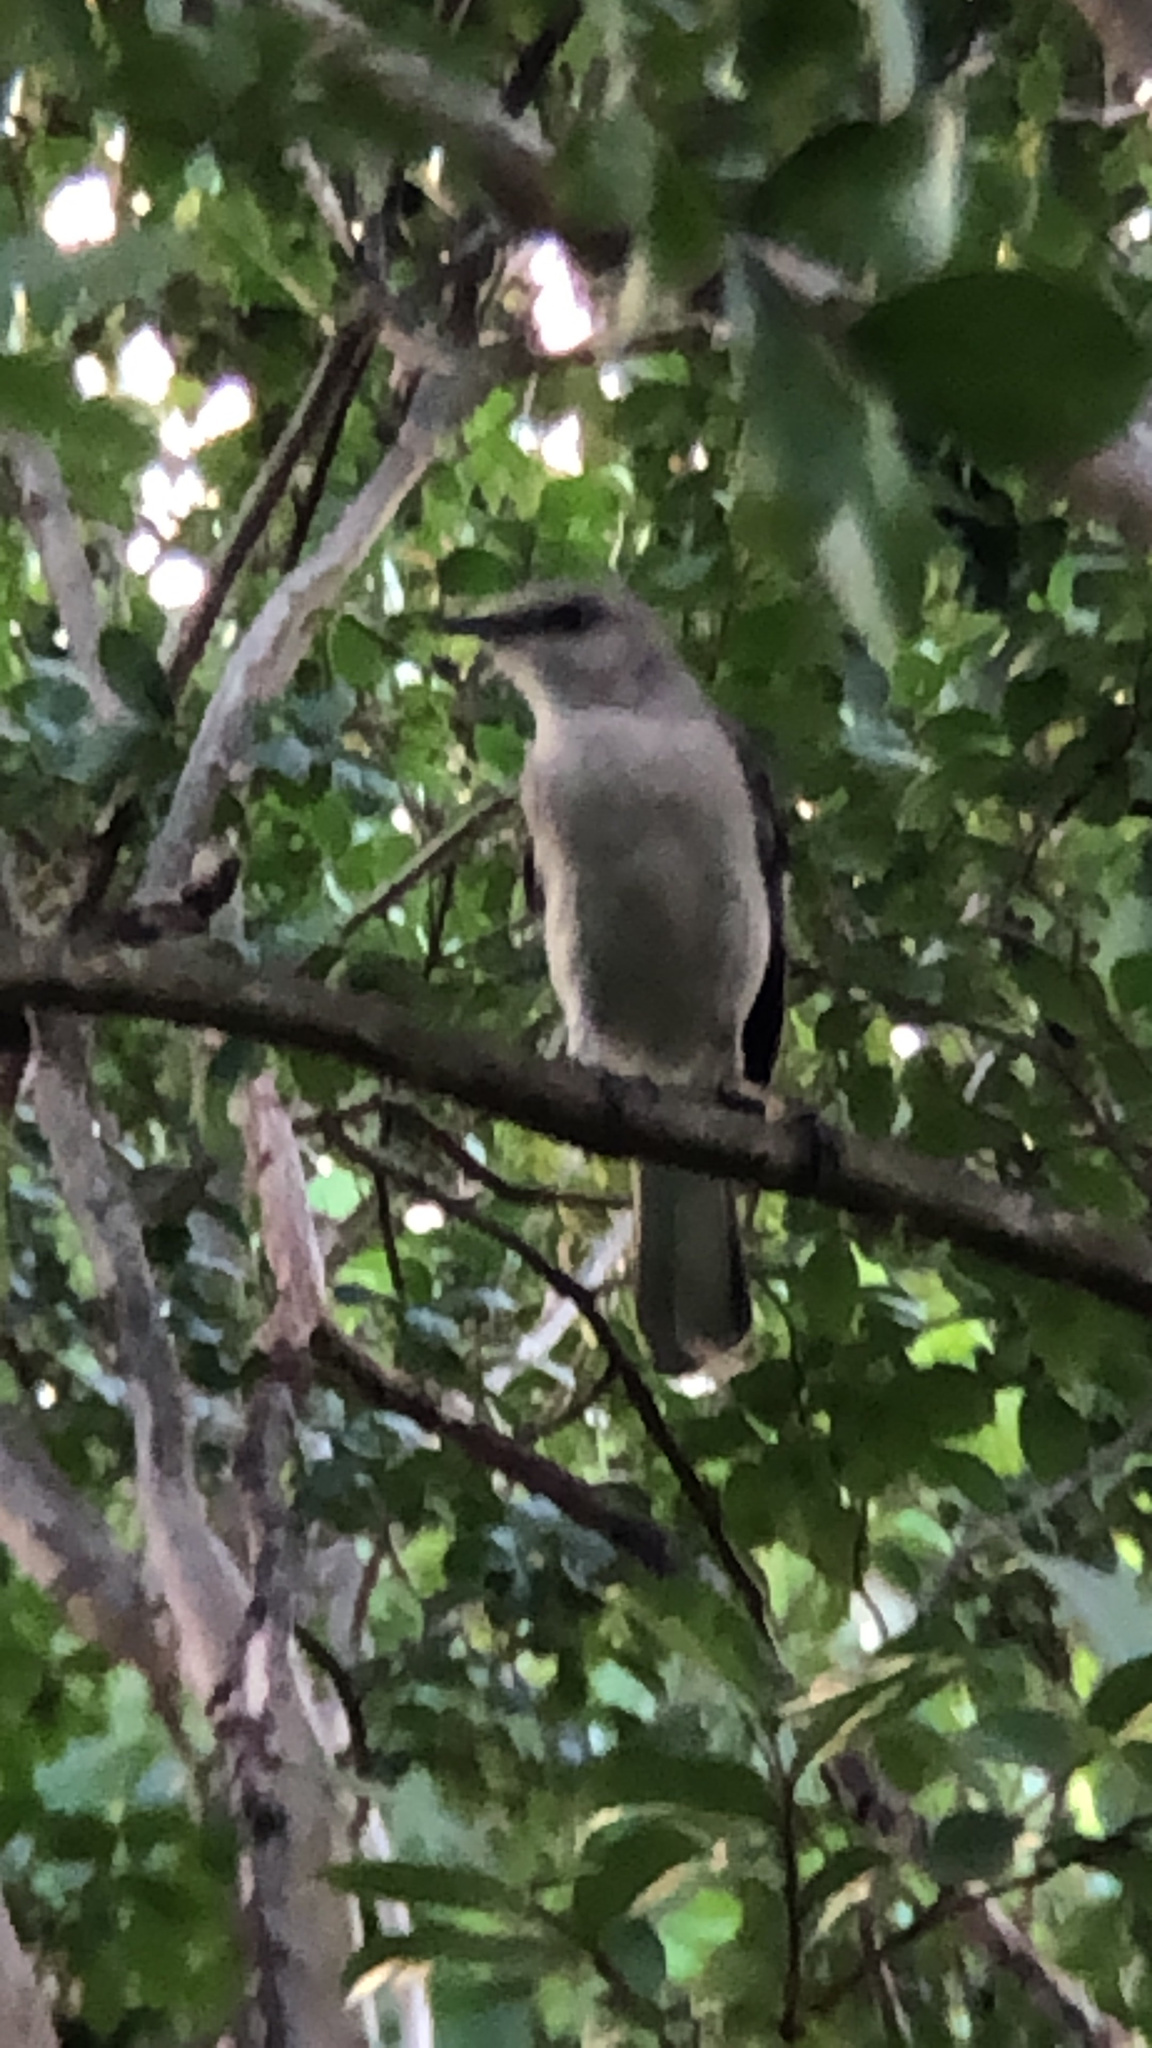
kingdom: Animalia
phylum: Chordata
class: Aves
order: Passeriformes
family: Mimidae
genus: Mimus
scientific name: Mimus polyglottos
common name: Northern mockingbird
